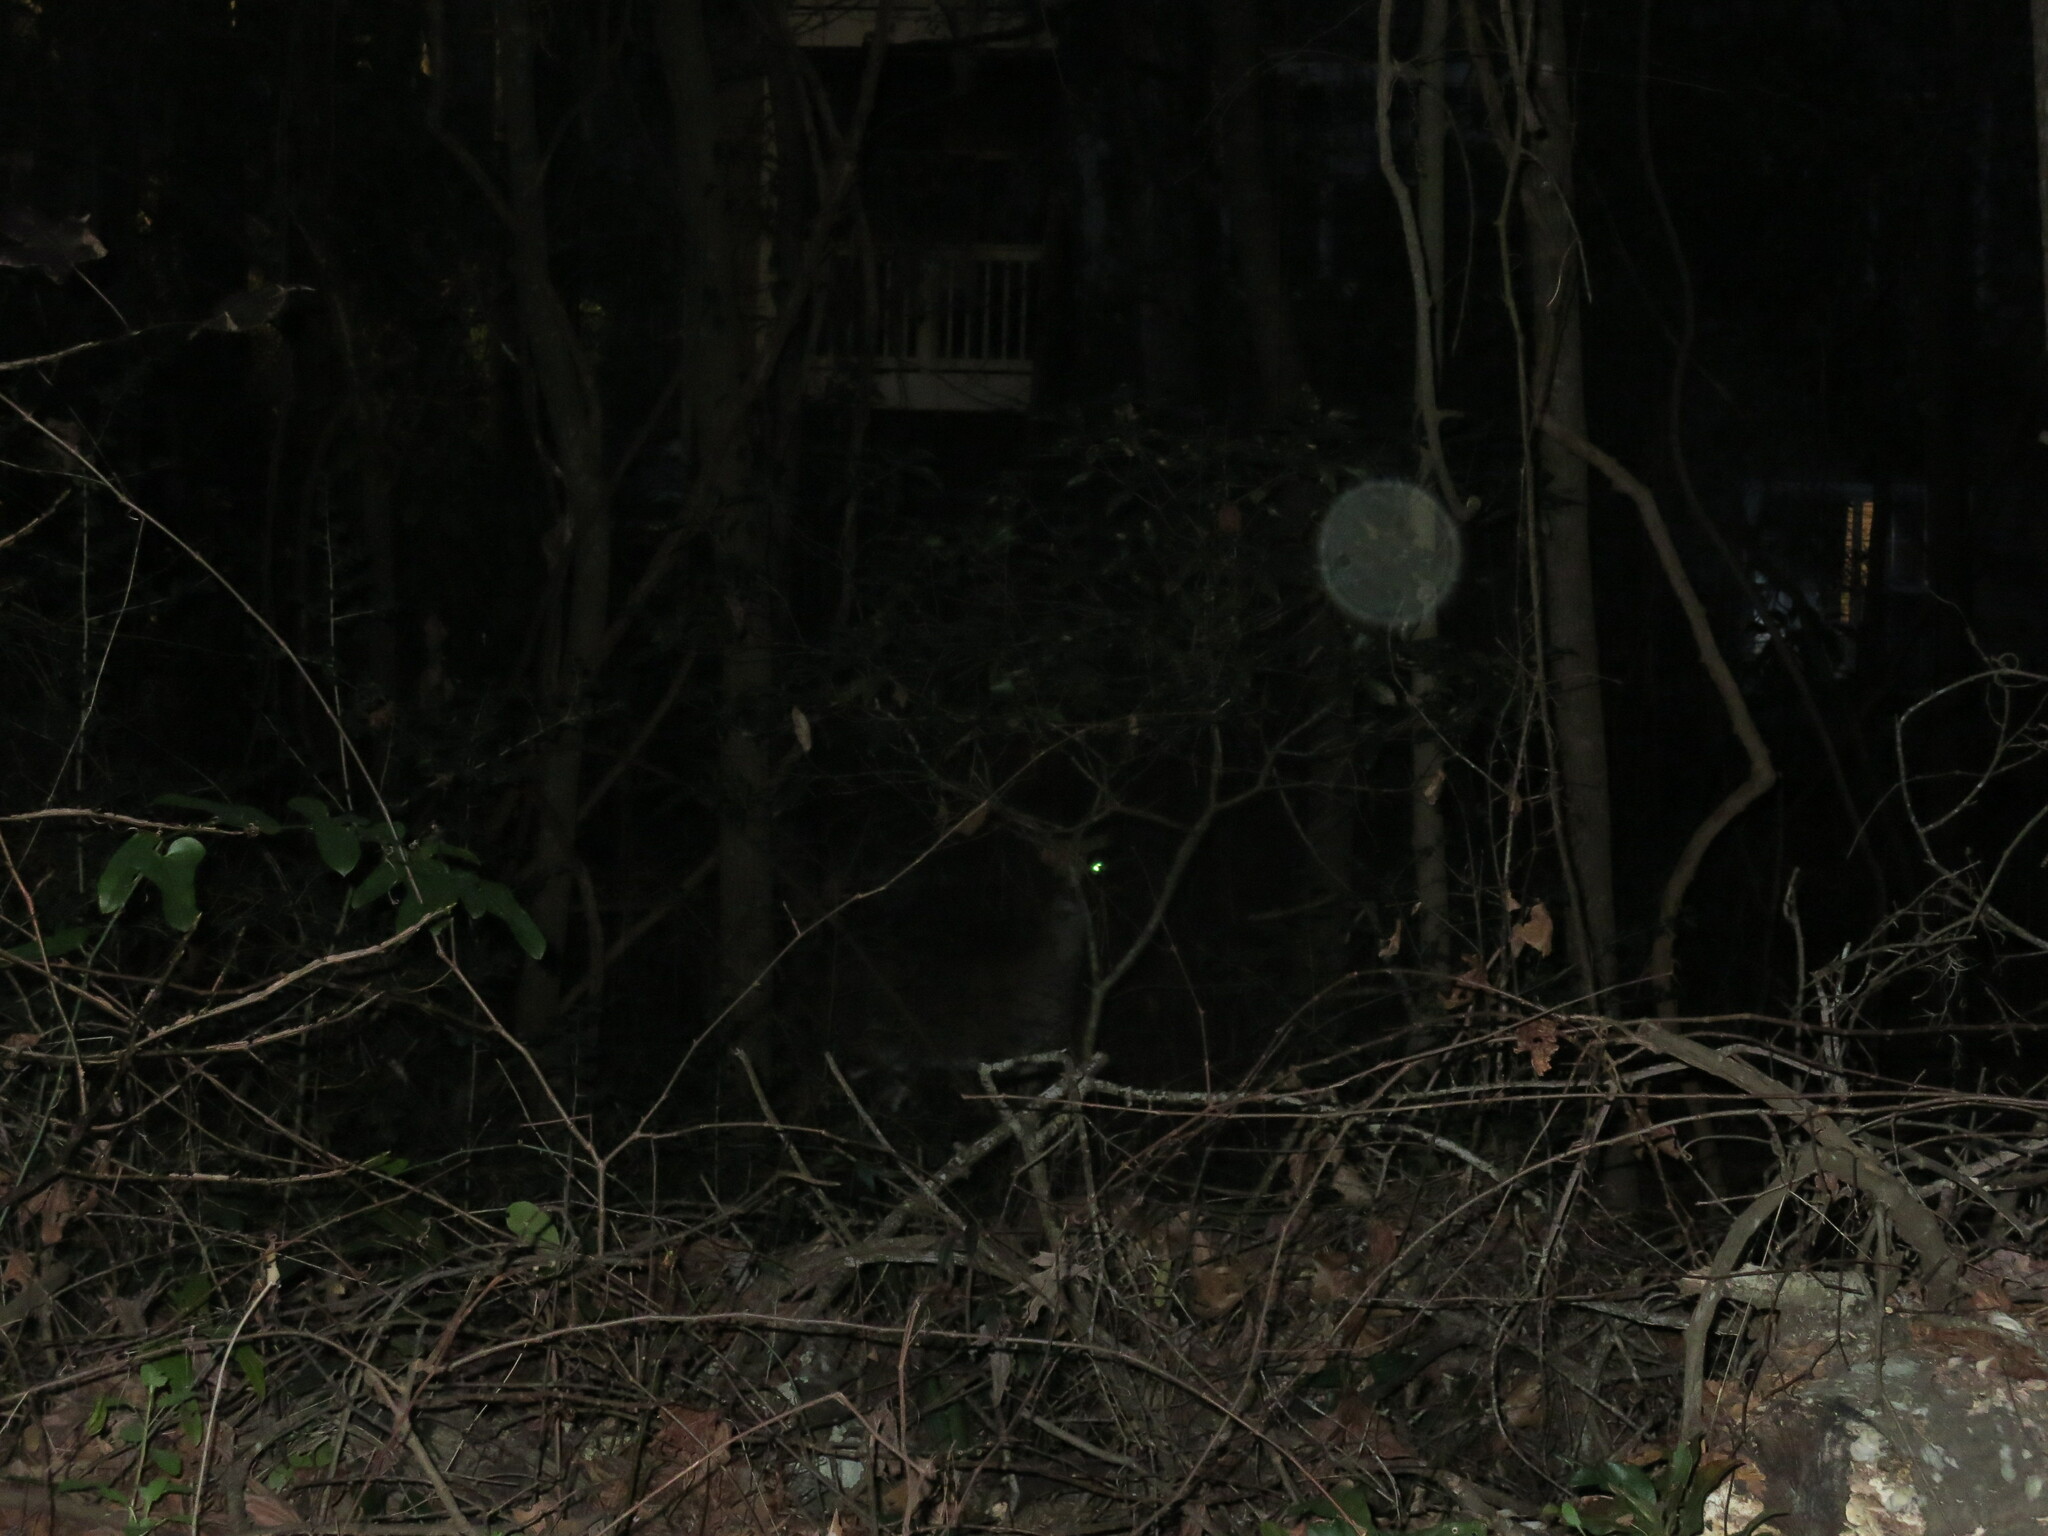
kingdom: Animalia
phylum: Chordata
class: Mammalia
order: Artiodactyla
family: Cervidae
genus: Odocoileus
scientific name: Odocoileus virginianus
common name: White-tailed deer
